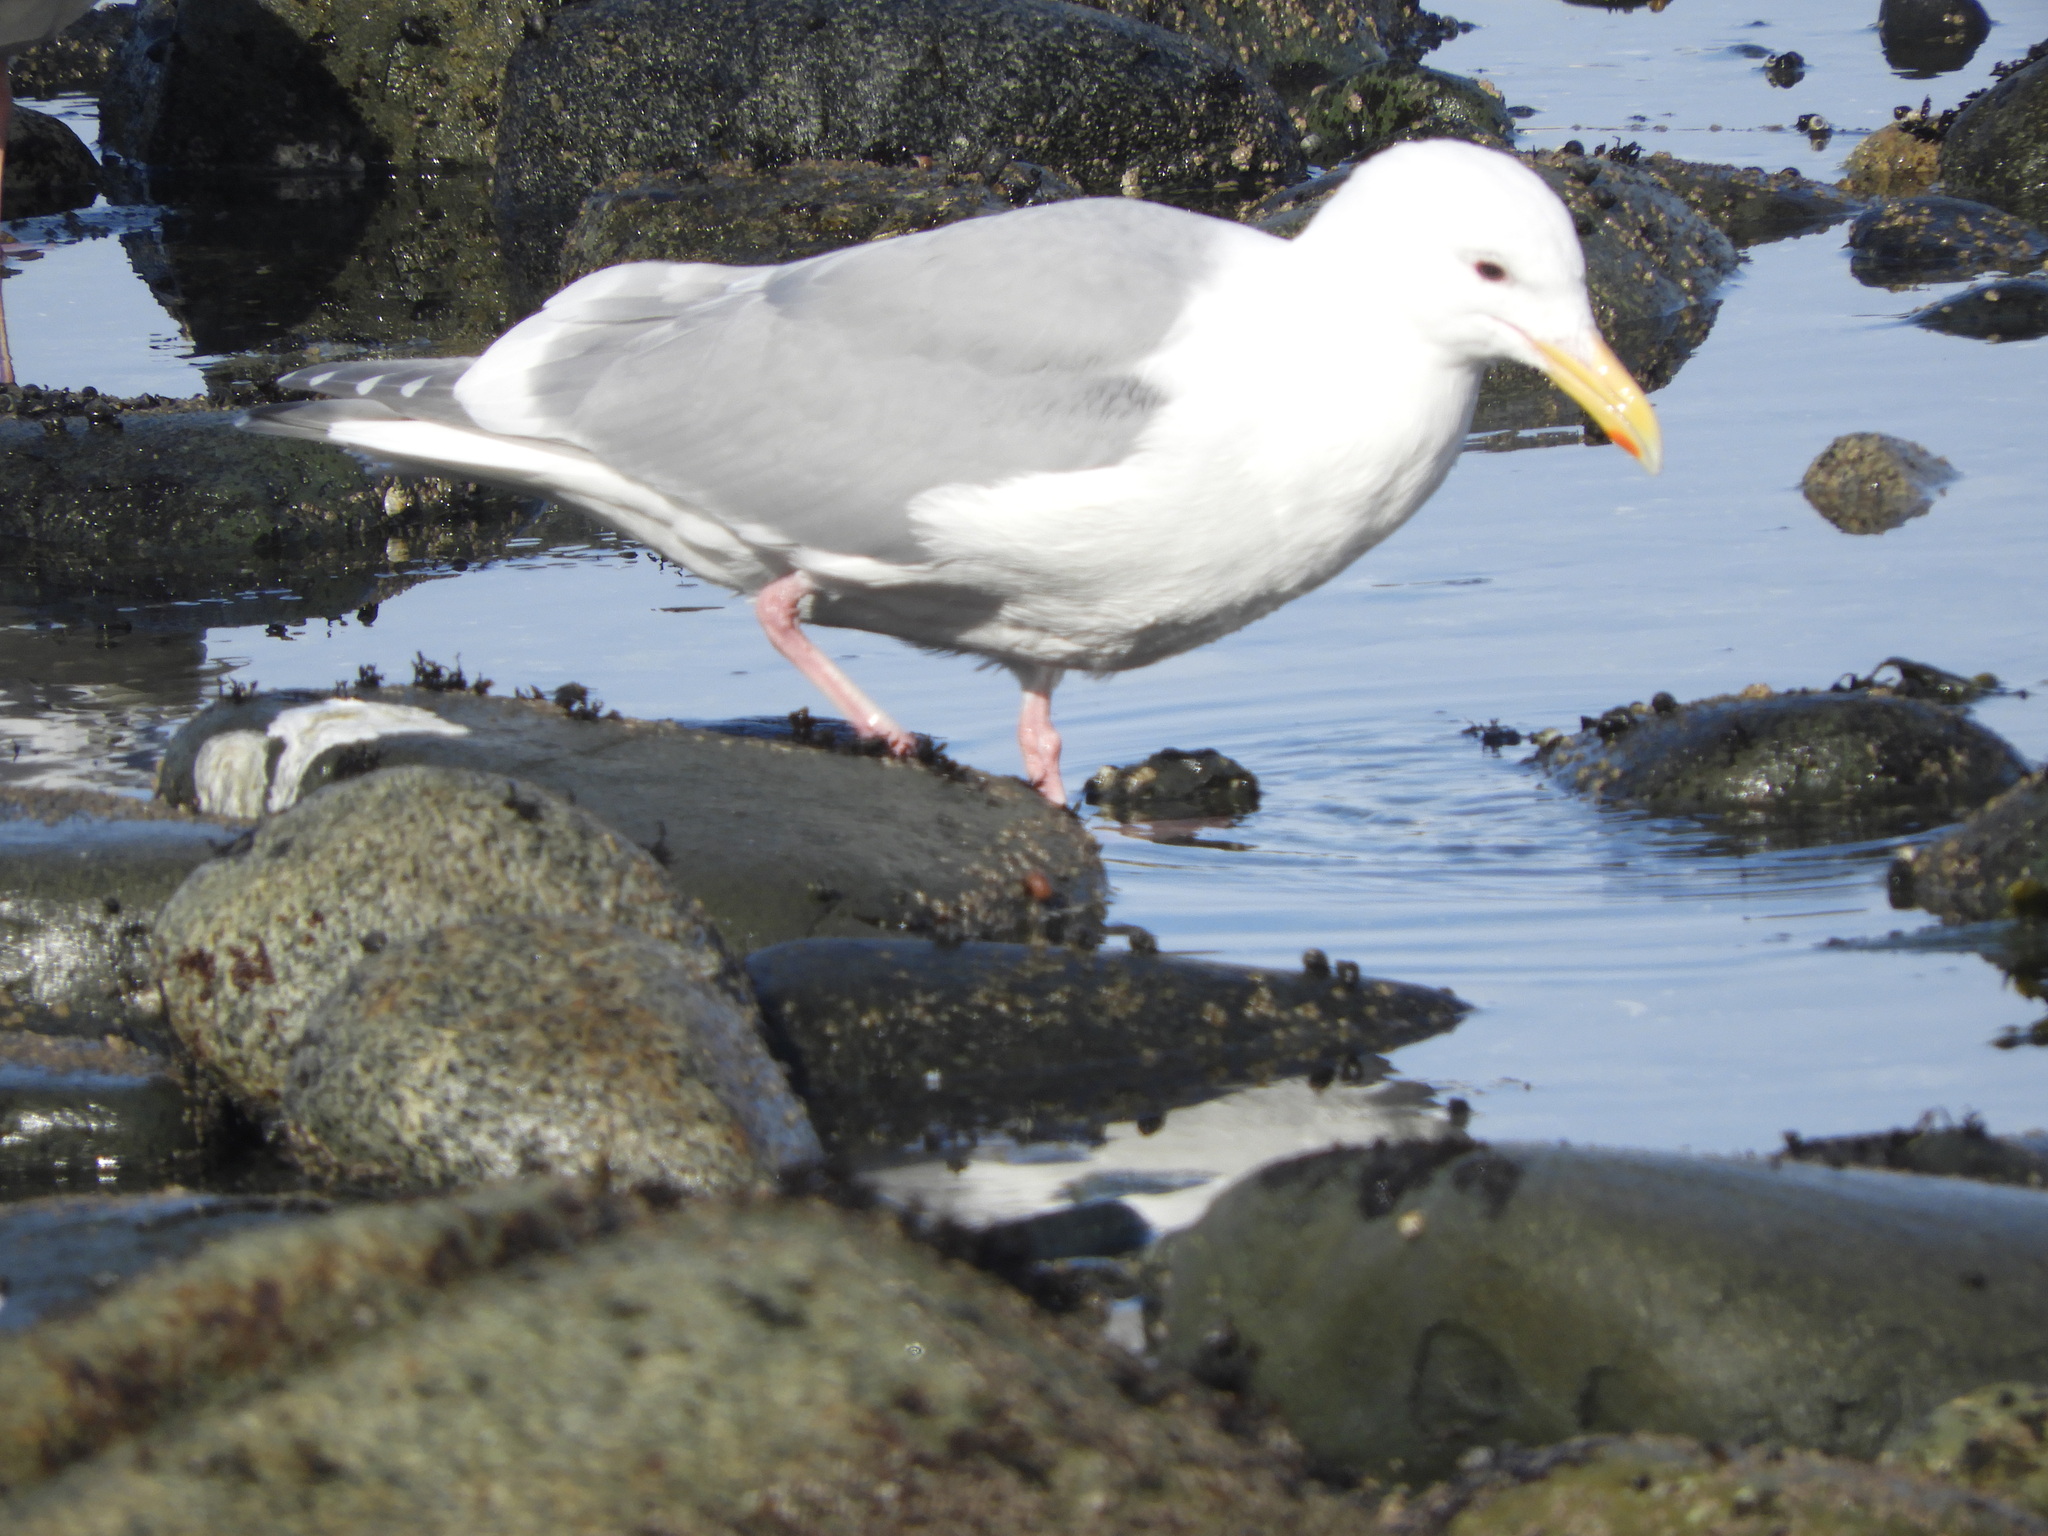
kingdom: Animalia
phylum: Chordata
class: Aves
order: Charadriiformes
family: Laridae
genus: Larus
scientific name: Larus
